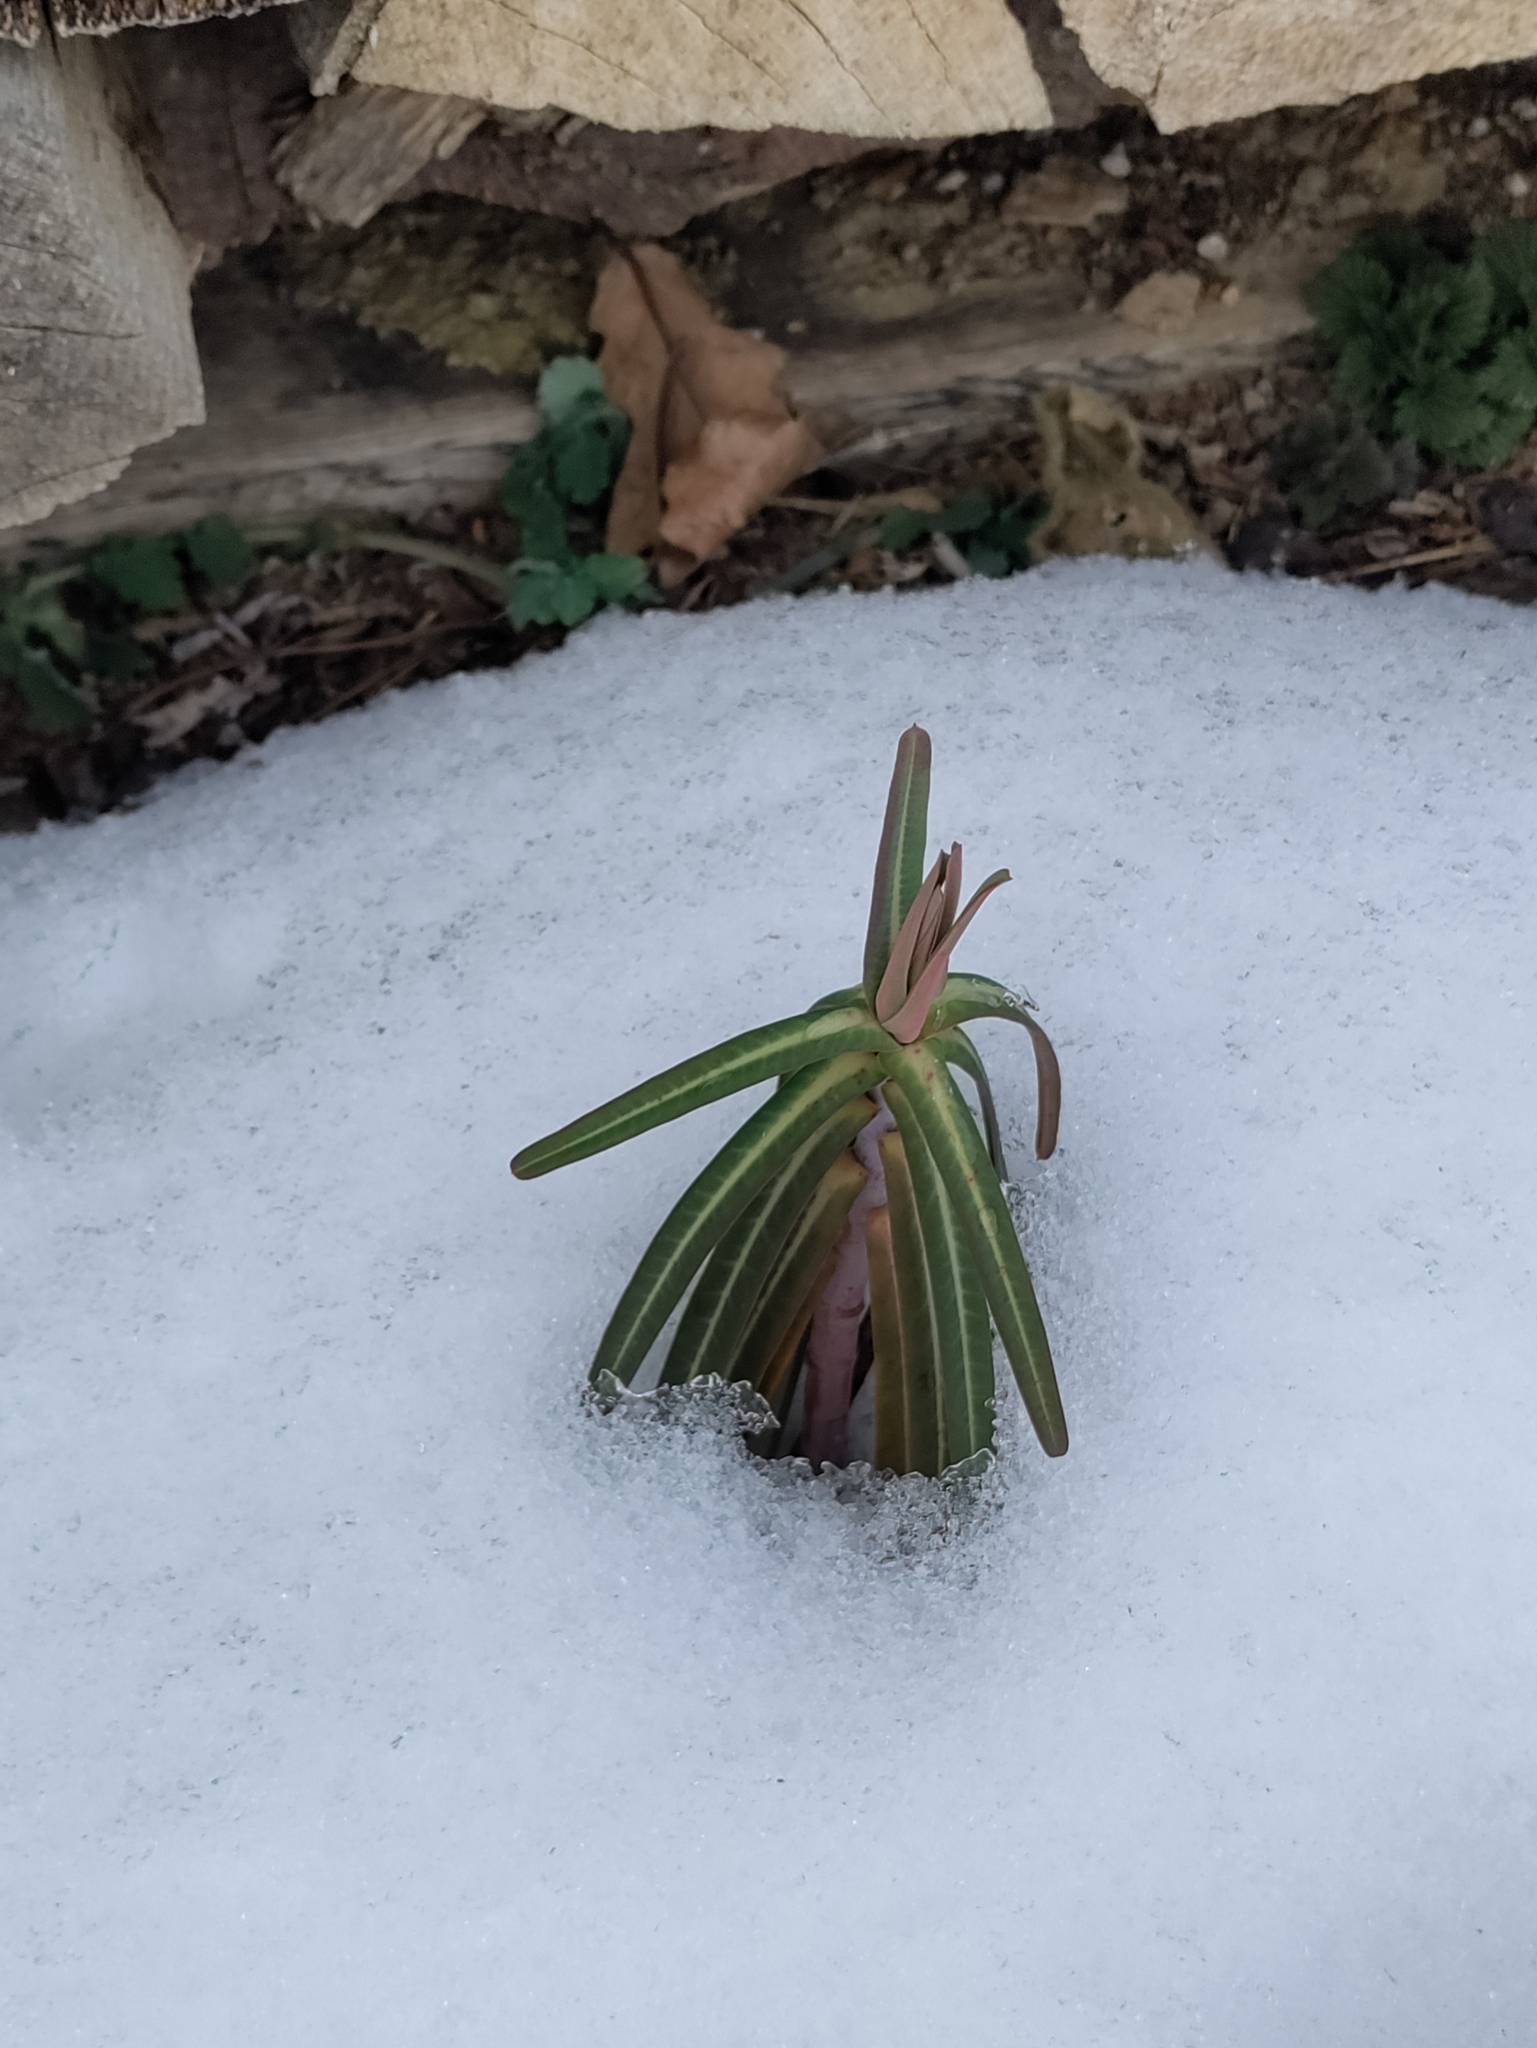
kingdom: Plantae
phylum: Tracheophyta
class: Magnoliopsida
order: Malpighiales
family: Euphorbiaceae
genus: Euphorbia
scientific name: Euphorbia lathyris
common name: Caper spurge
